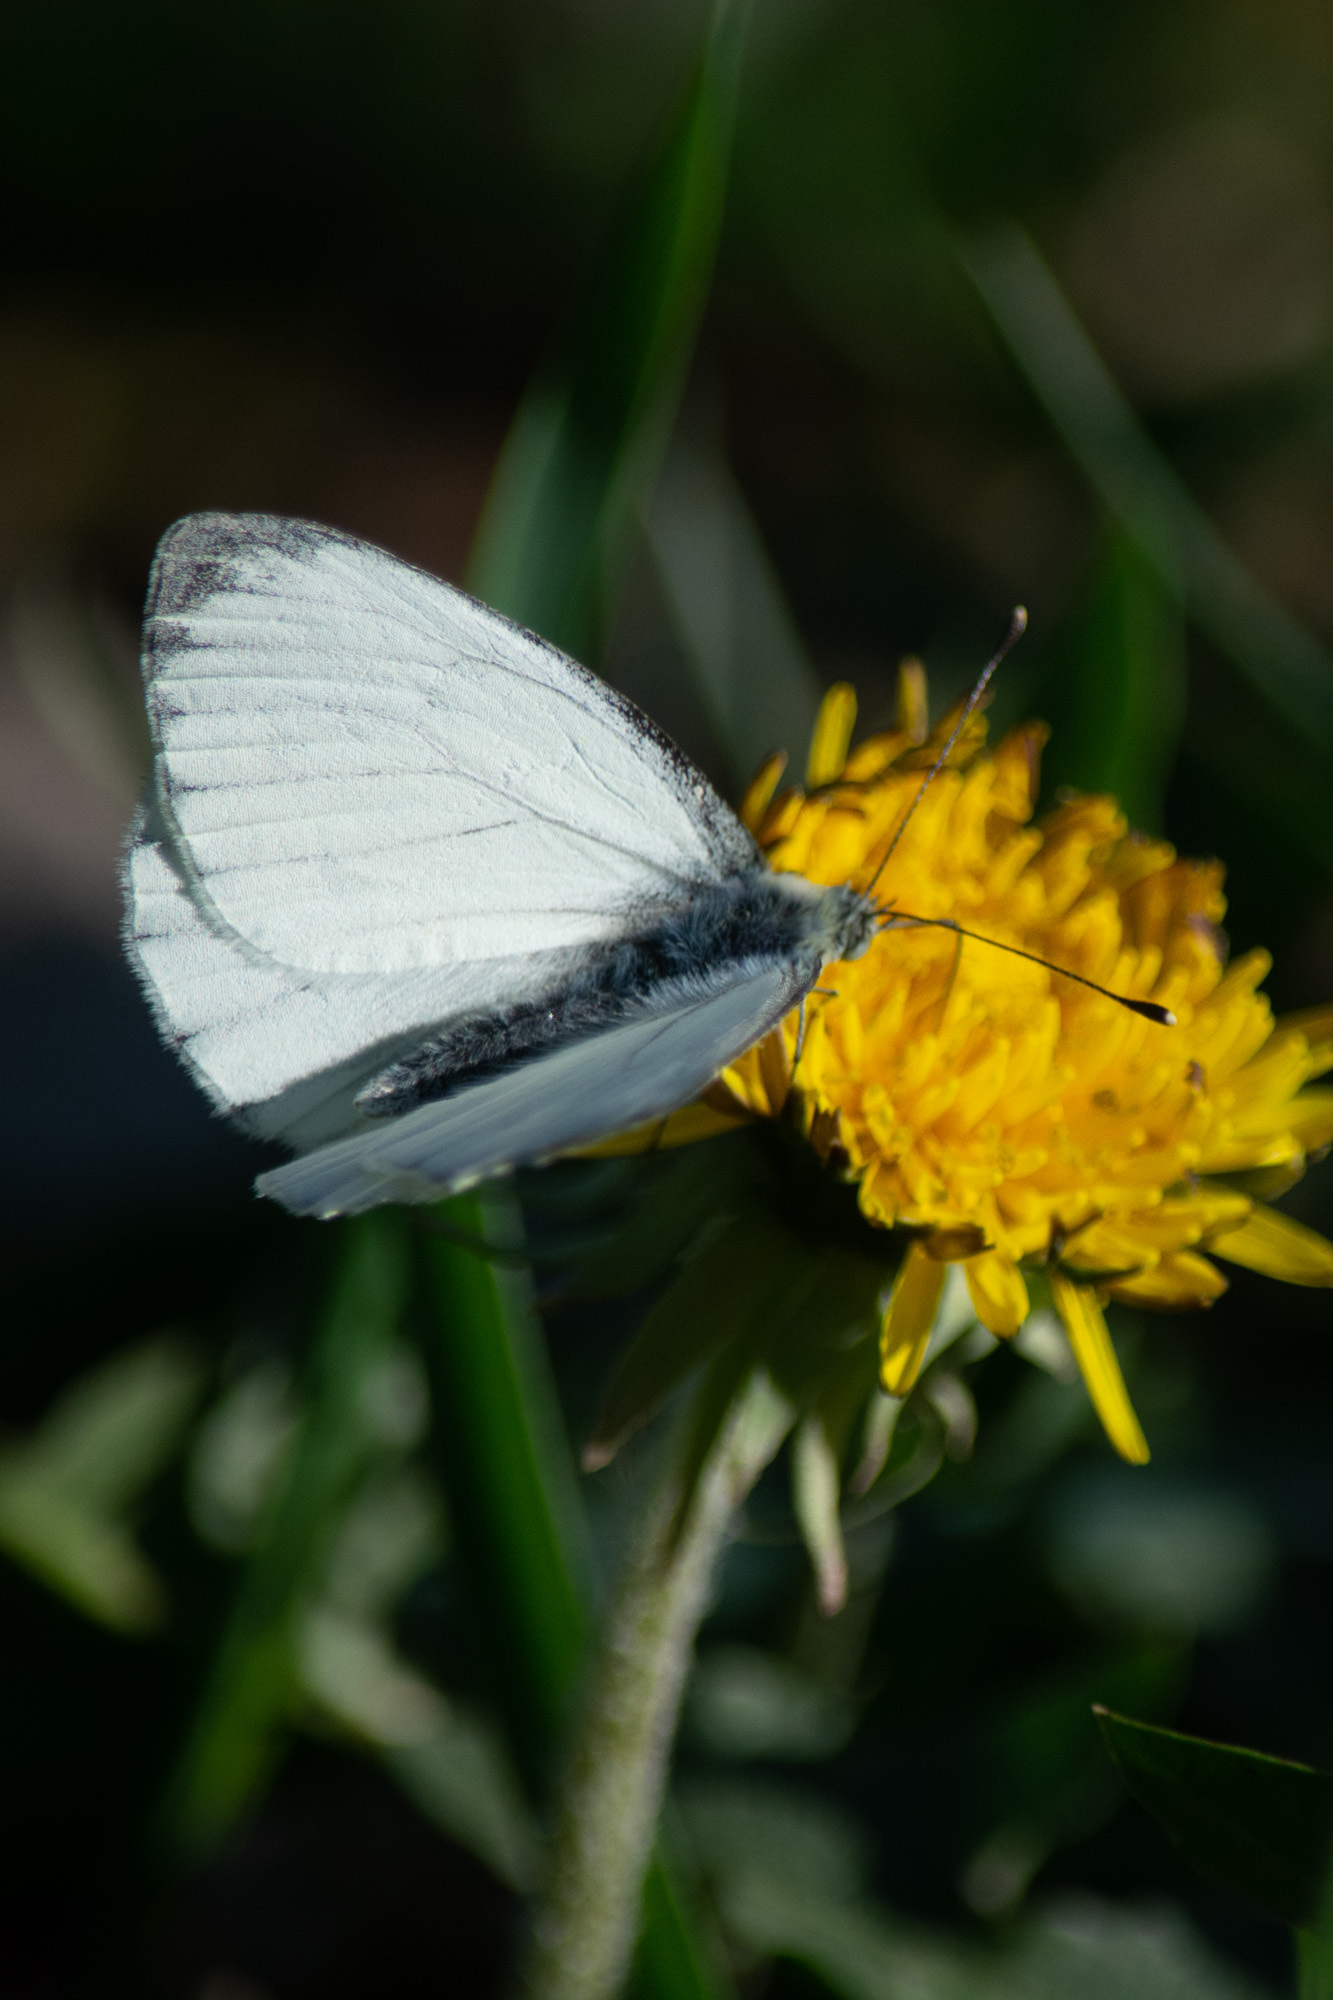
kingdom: Animalia
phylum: Arthropoda
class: Insecta
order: Lepidoptera
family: Pieridae
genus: Pieris
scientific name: Pieris napi
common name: Green-veined white
